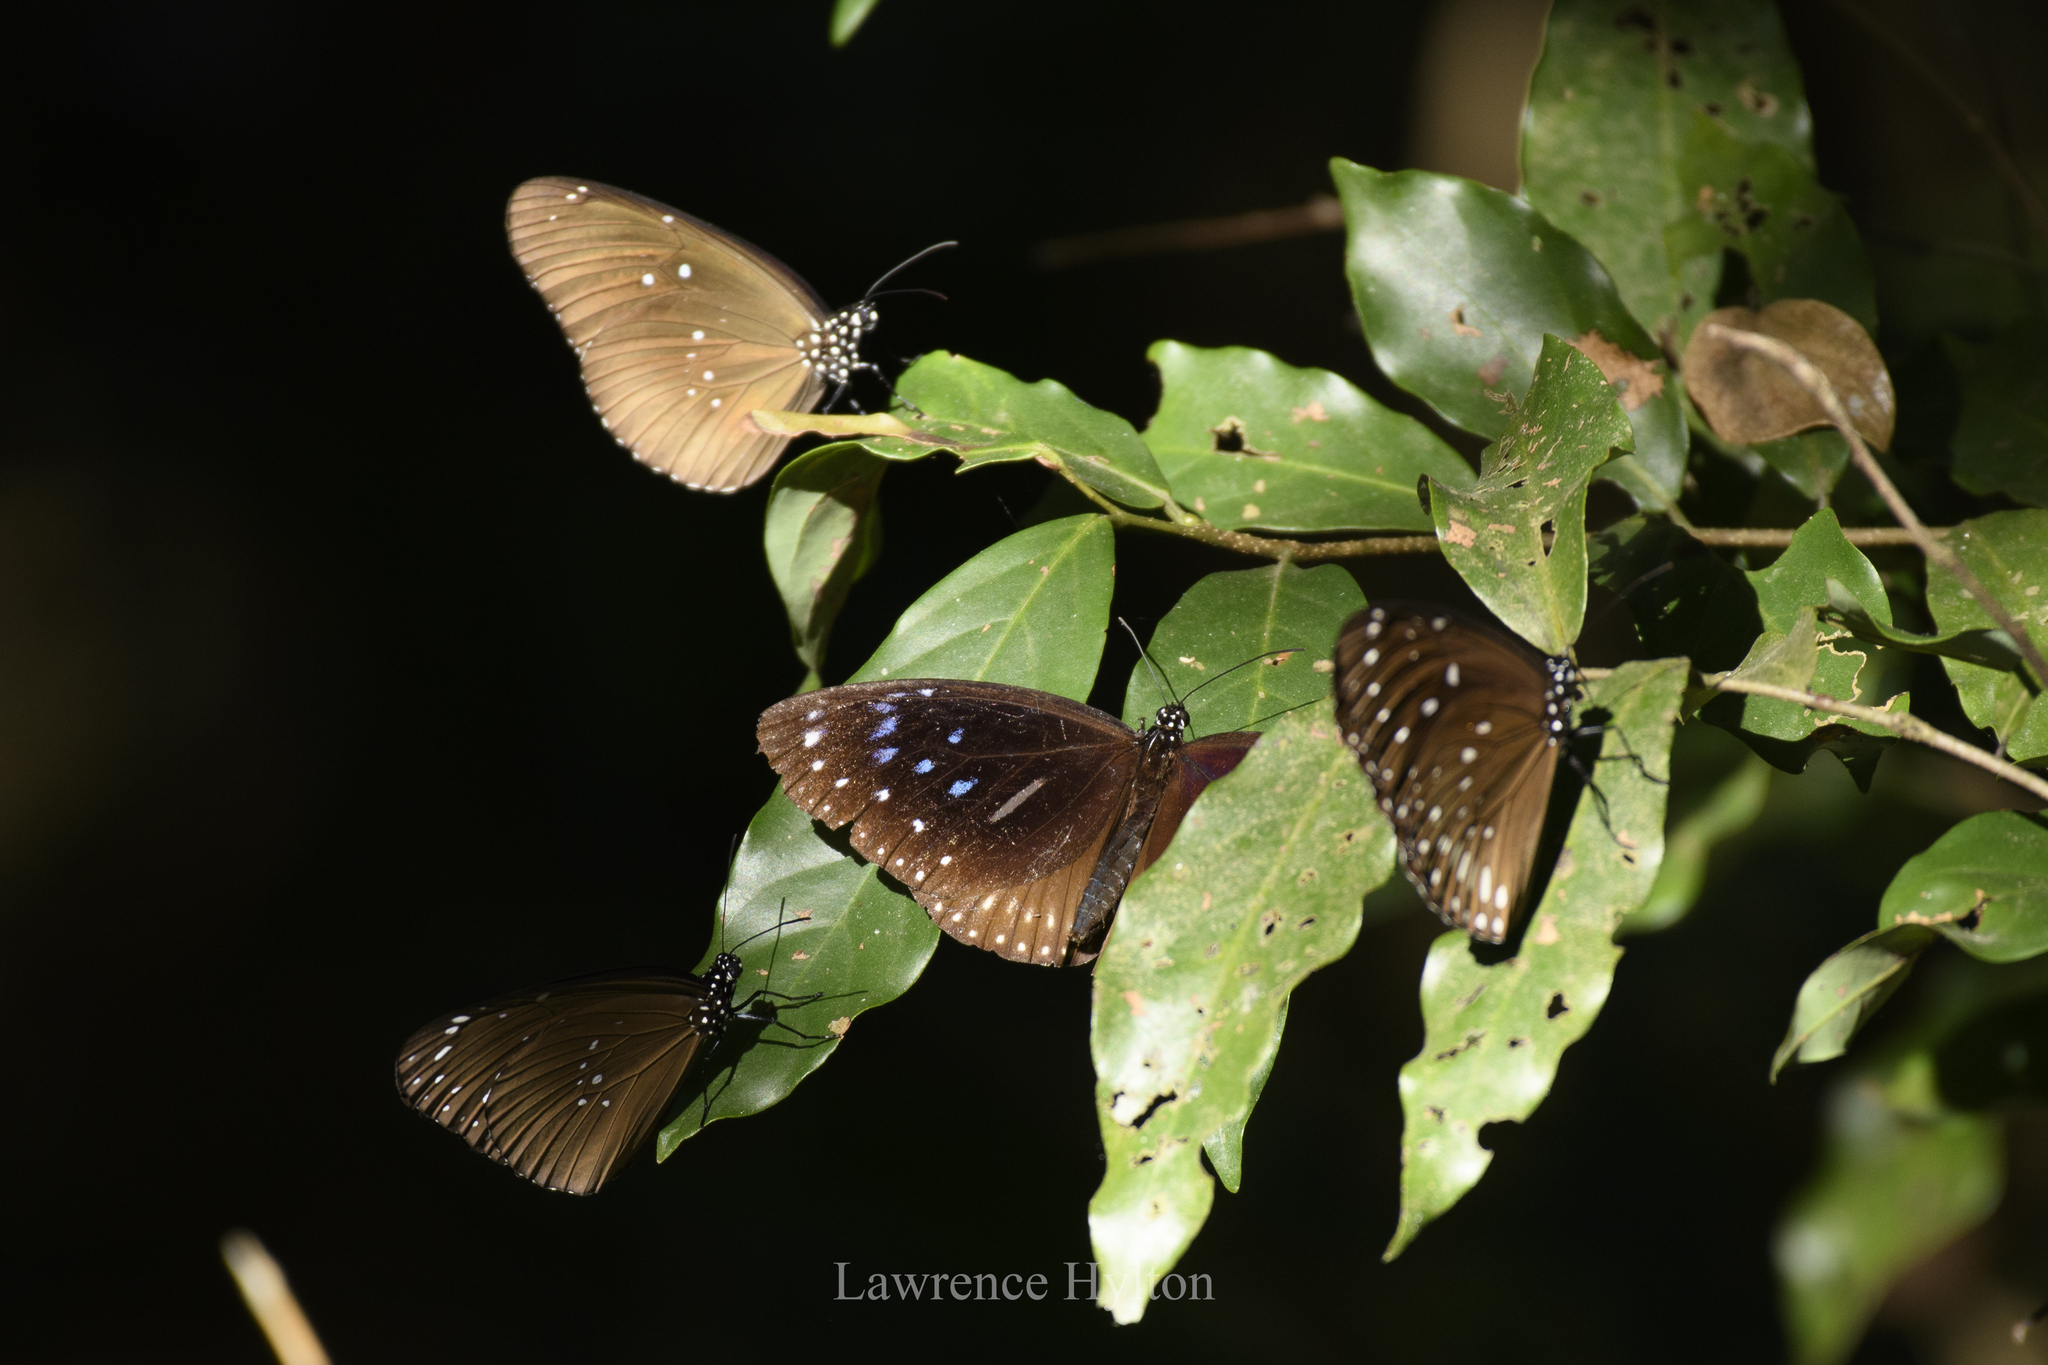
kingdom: Animalia
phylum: Arthropoda
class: Insecta
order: Lepidoptera
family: Nymphalidae
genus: Euploea
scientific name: Euploea midamus
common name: Blue-spotted crow butterfly
